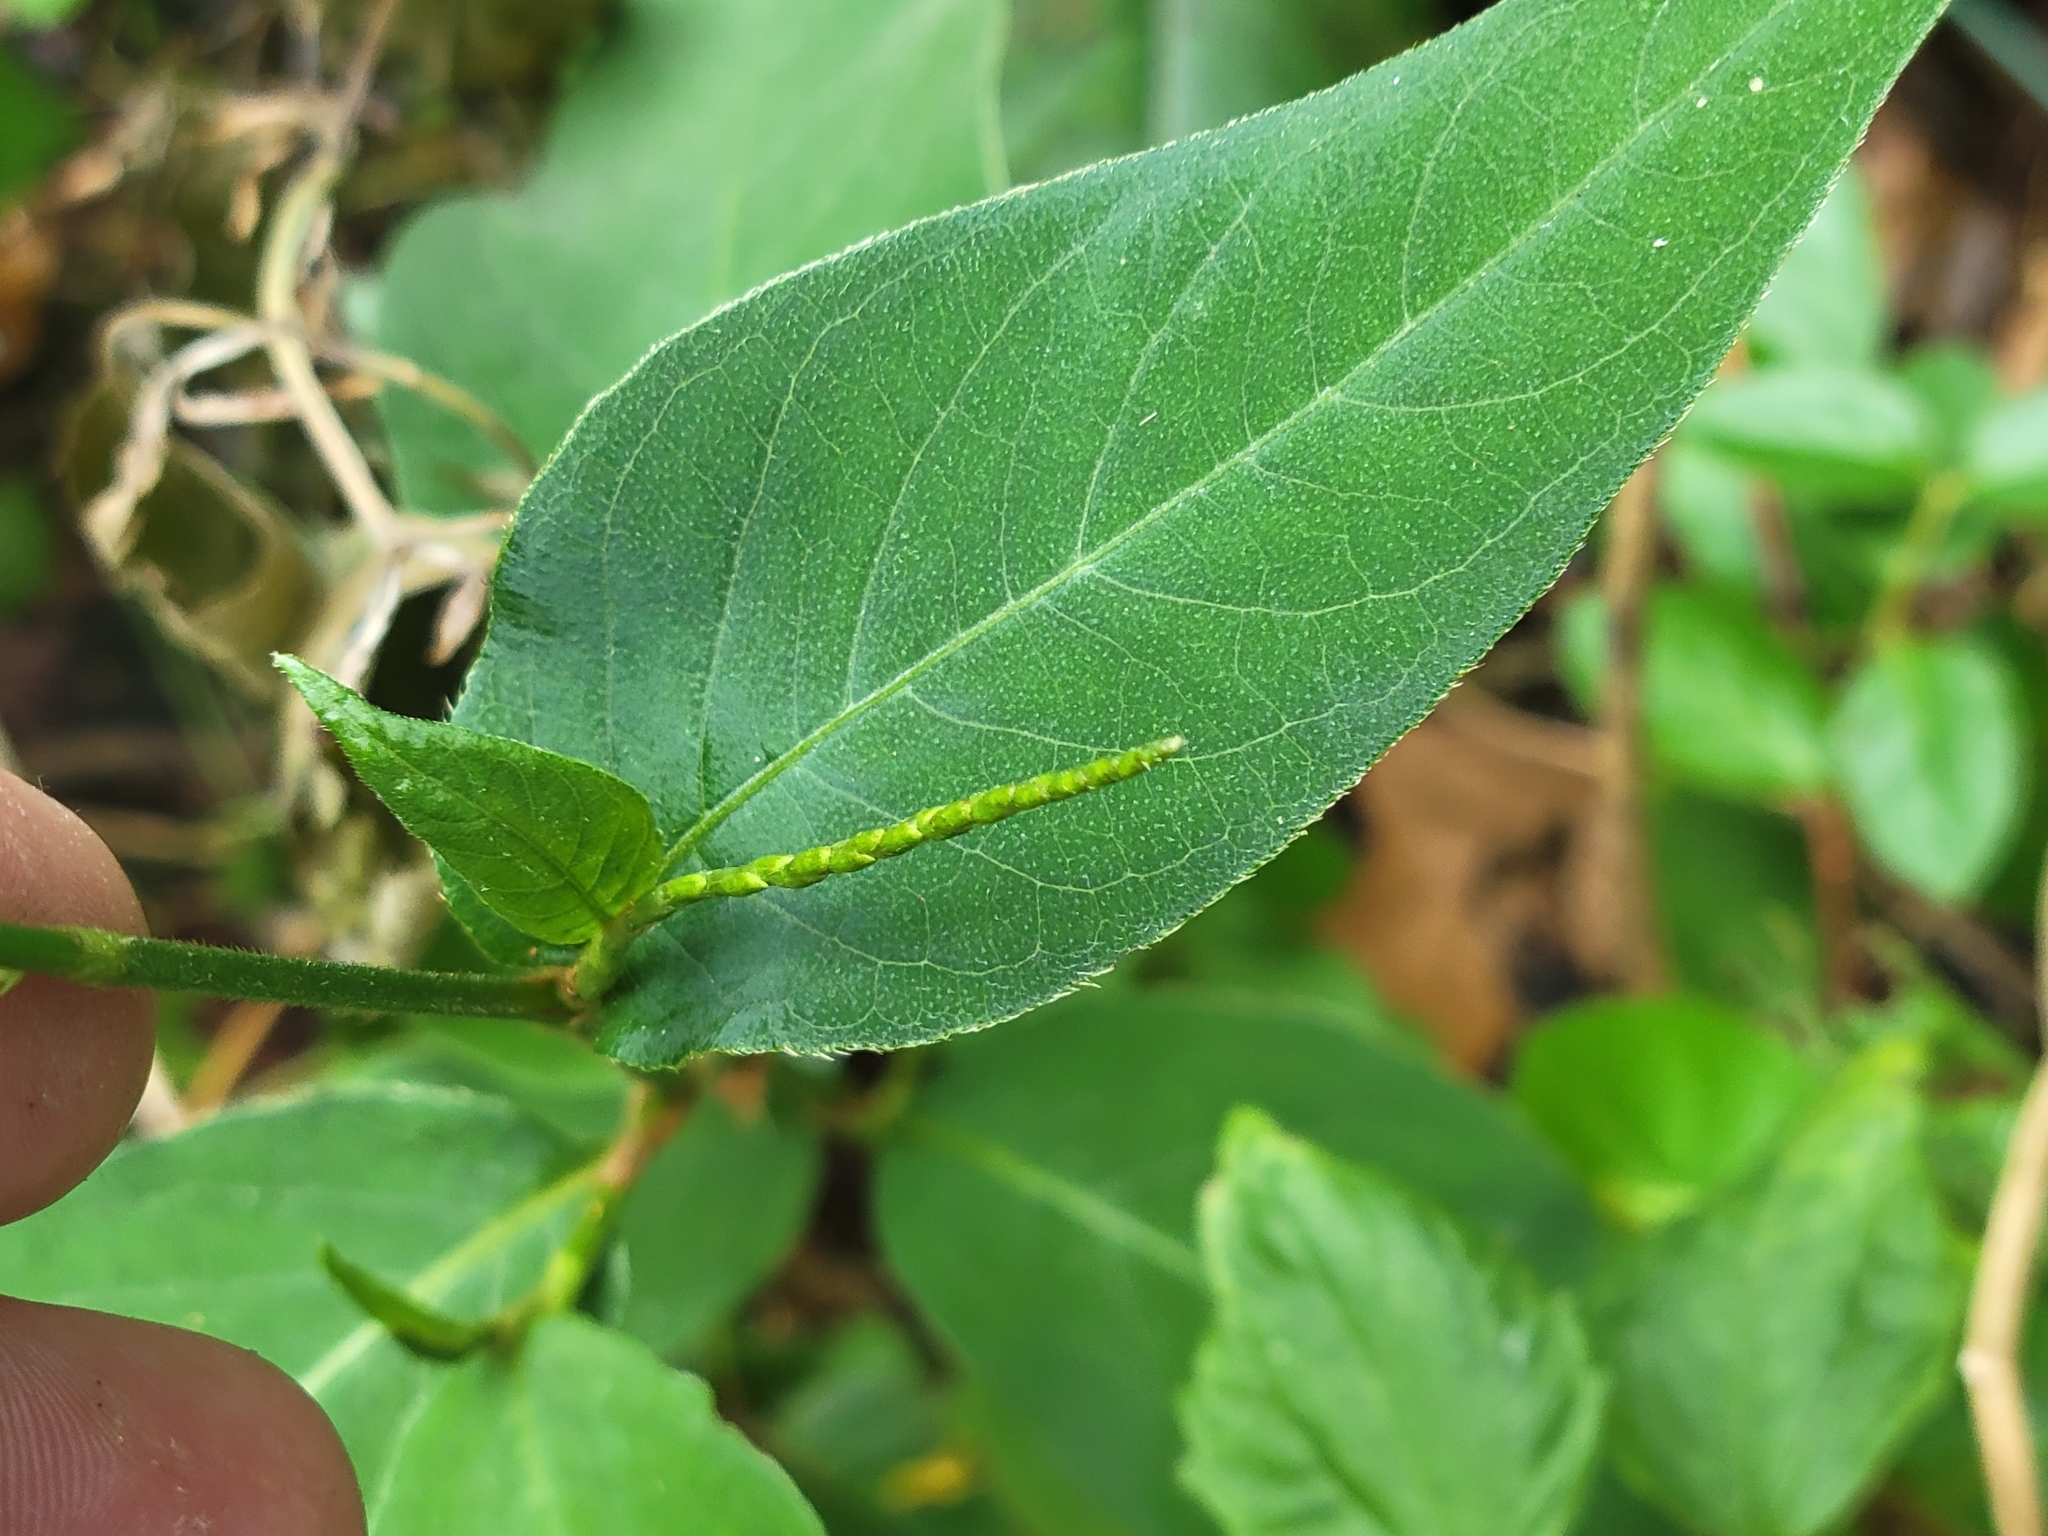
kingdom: Plantae
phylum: Tracheophyta
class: Magnoliopsida
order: Caryophyllales
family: Polygonaceae
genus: Persicaria
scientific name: Persicaria virginiana
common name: Jumpseed
